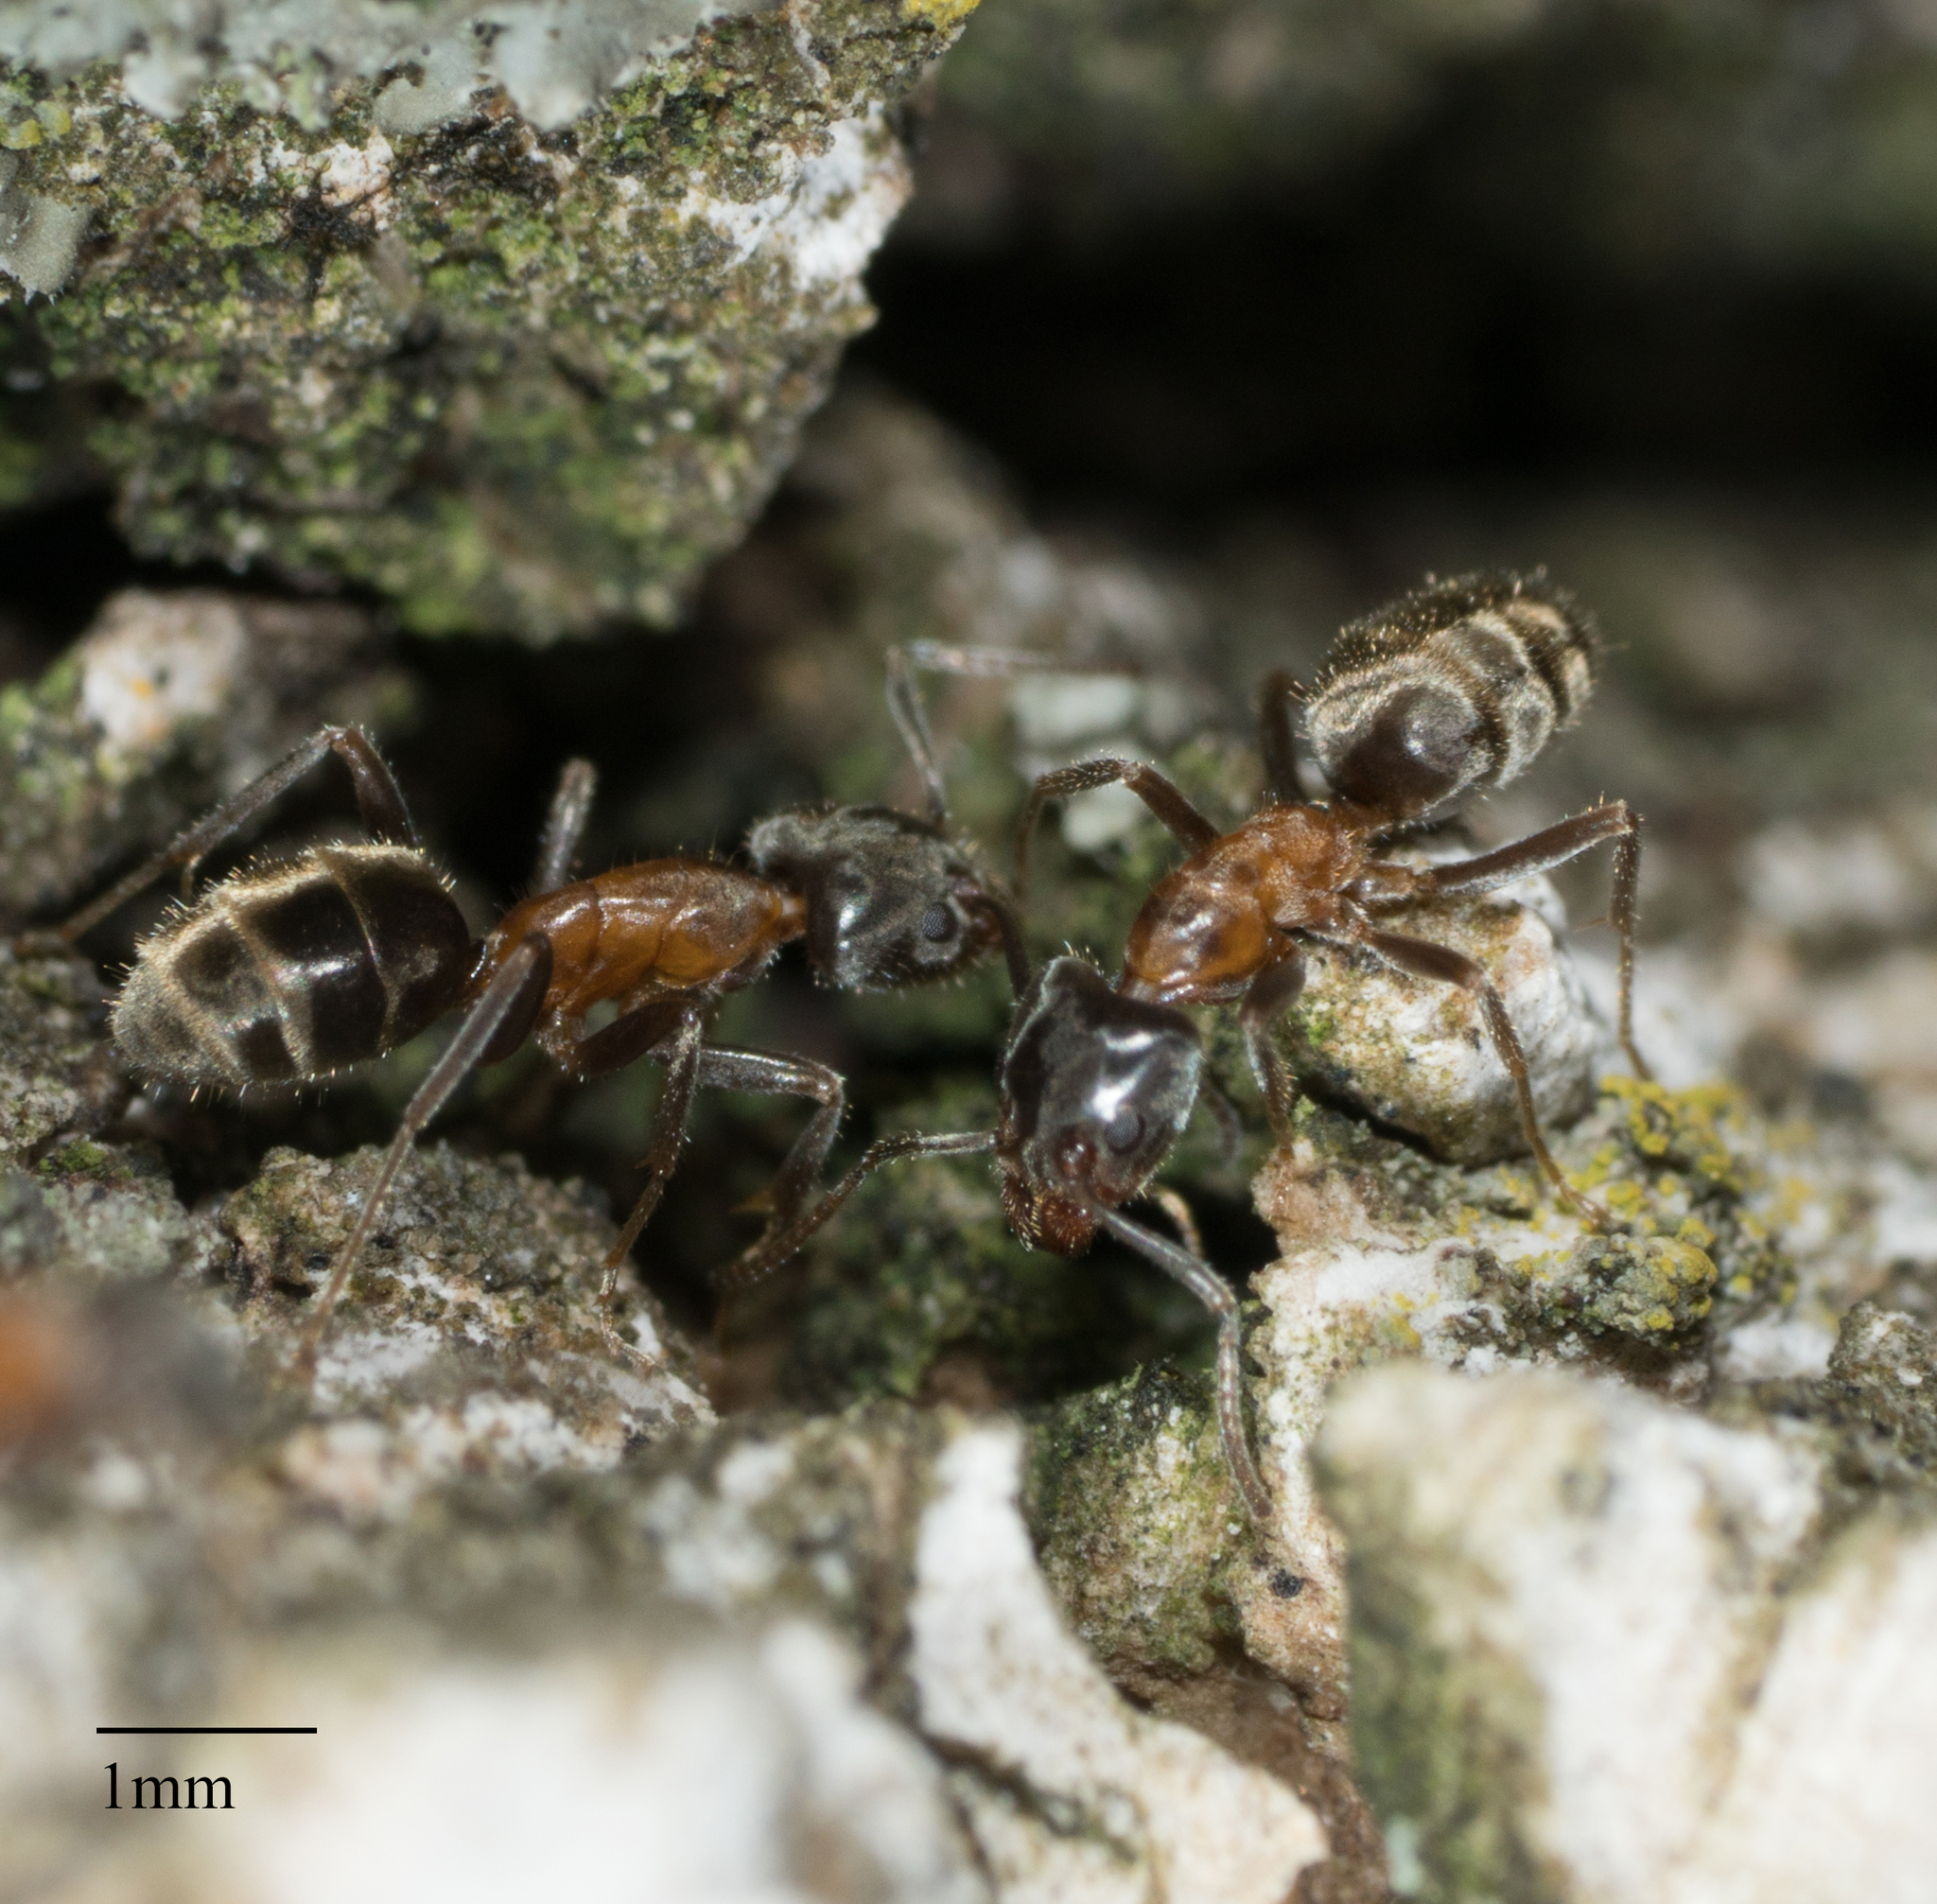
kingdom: Animalia
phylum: Arthropoda
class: Insecta
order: Hymenoptera
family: Formicidae
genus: Liometopum
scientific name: Liometopum occidentale
